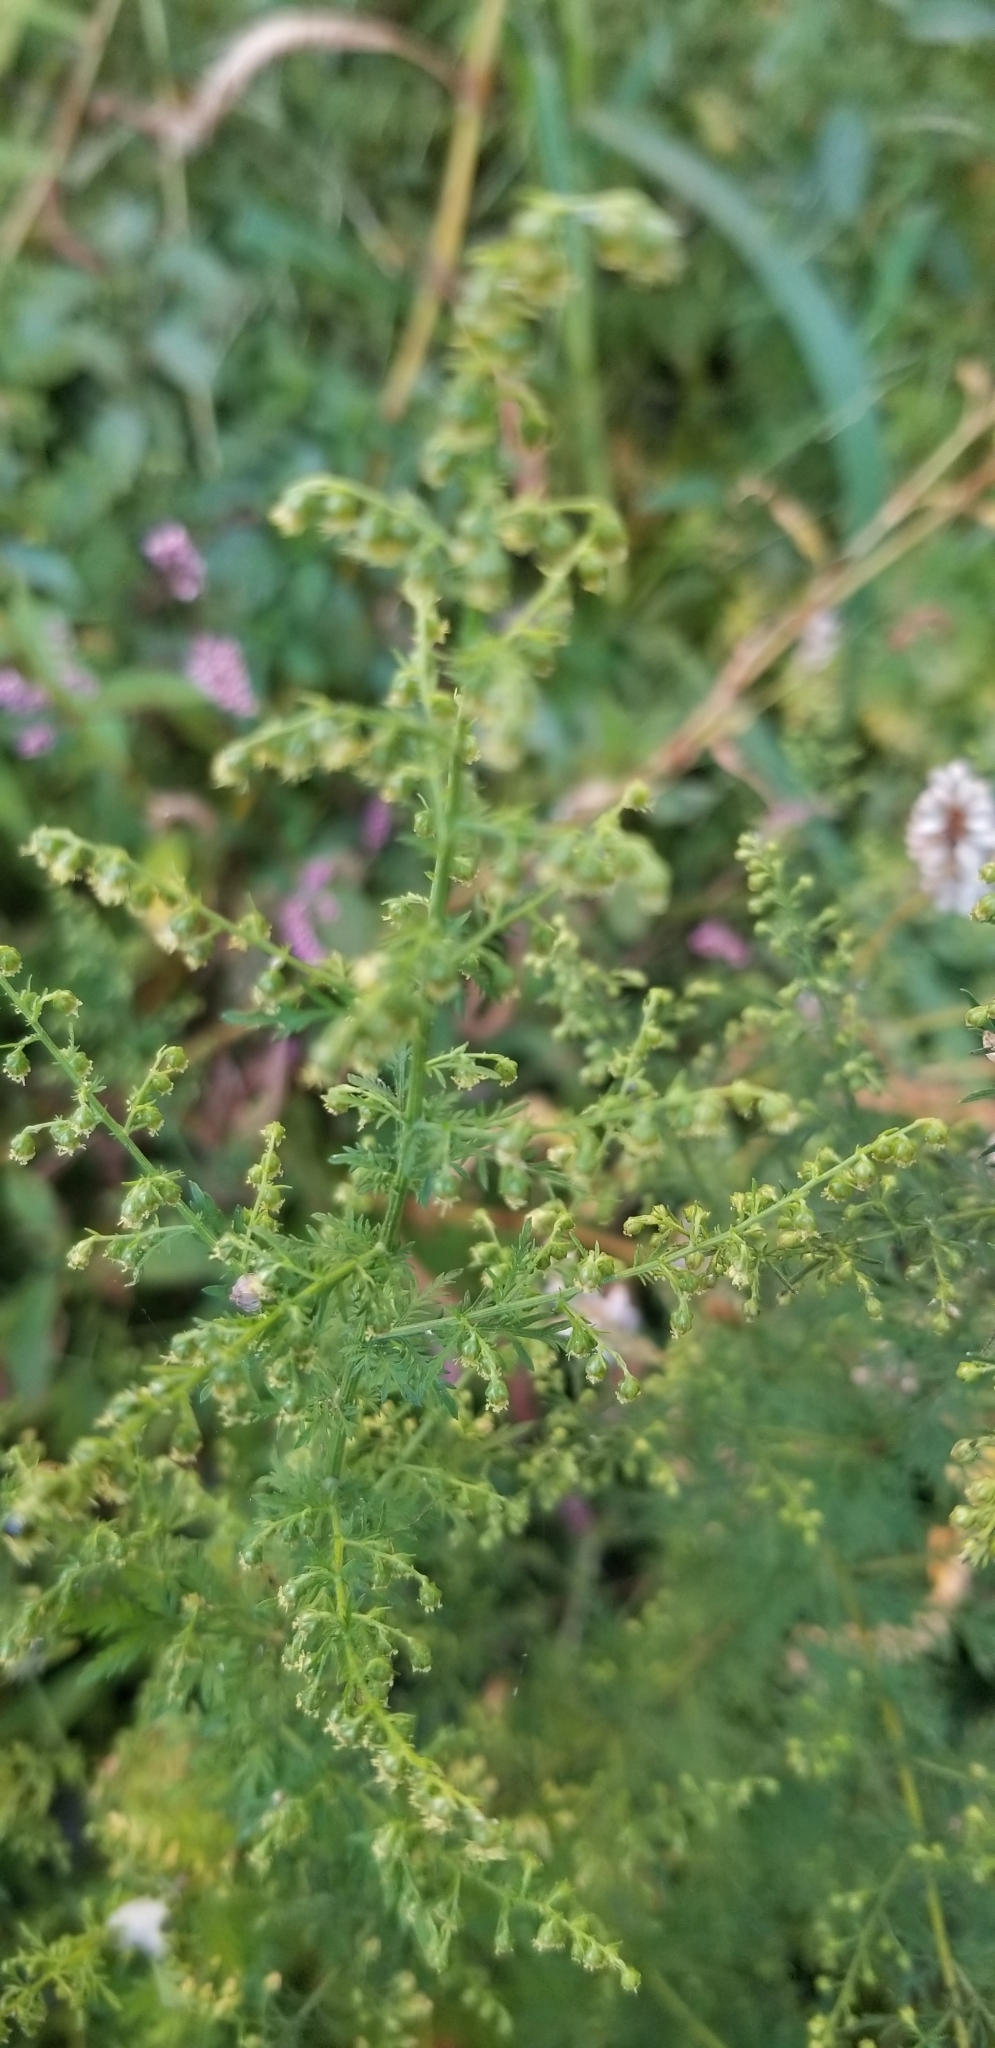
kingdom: Plantae
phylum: Tracheophyta
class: Magnoliopsida
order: Asterales
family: Asteraceae
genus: Artemisia
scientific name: Artemisia annua
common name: Sweet sagewort
